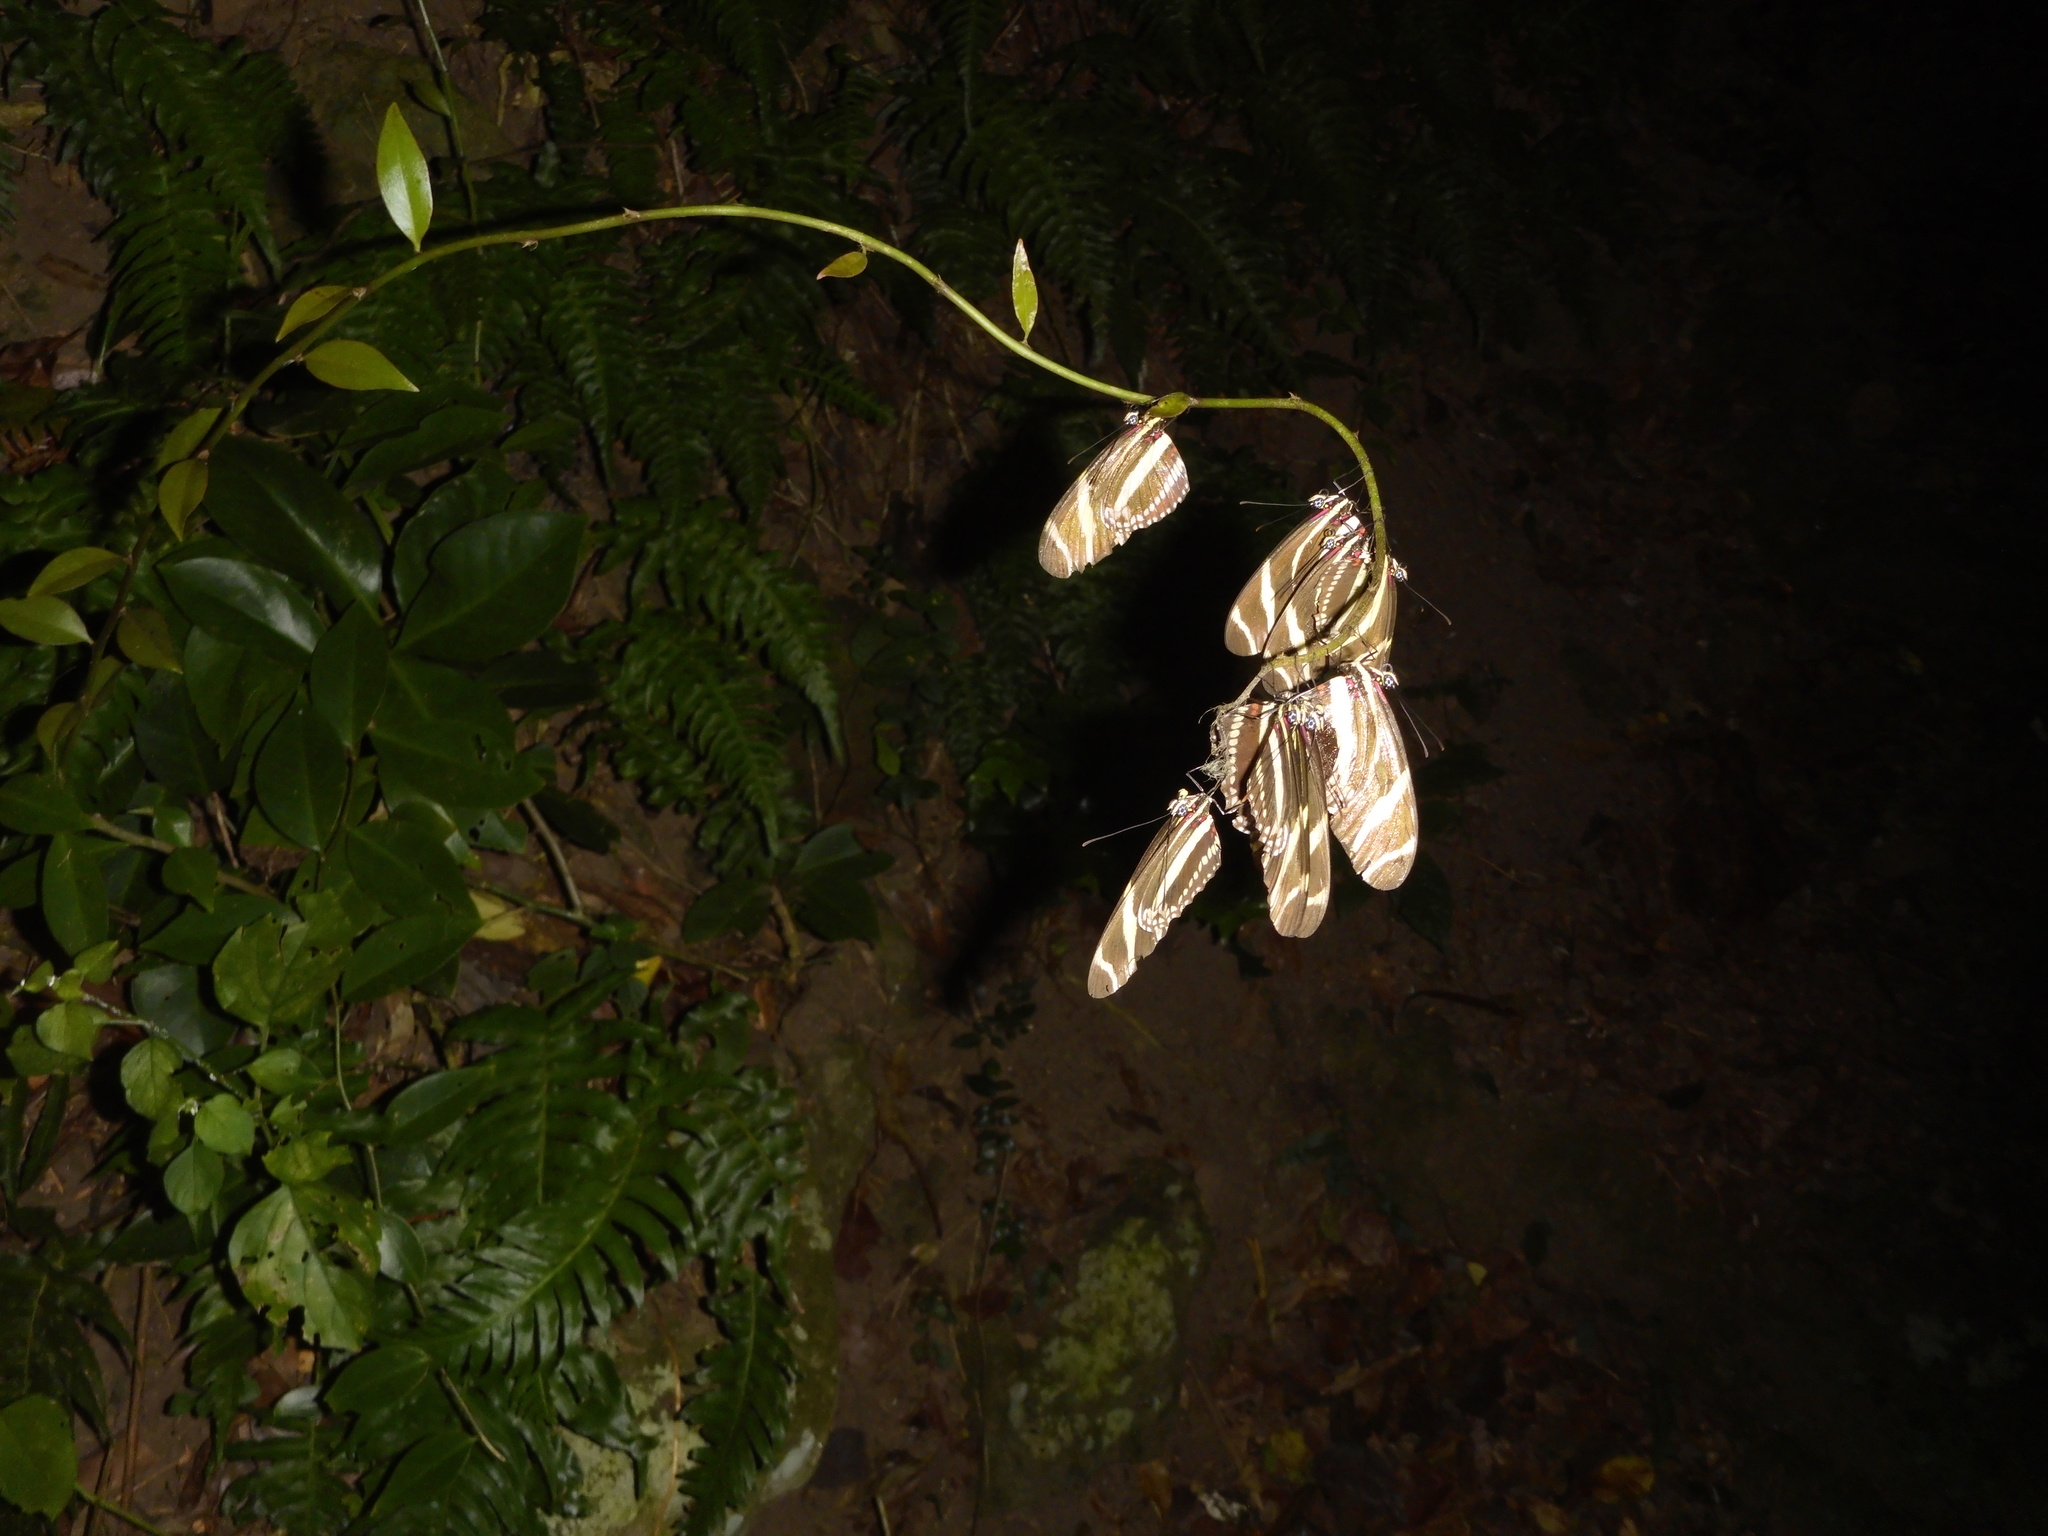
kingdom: Animalia
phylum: Arthropoda
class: Insecta
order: Lepidoptera
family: Nymphalidae
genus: Heliconius
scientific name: Heliconius charithonia
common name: Zebra long wing
